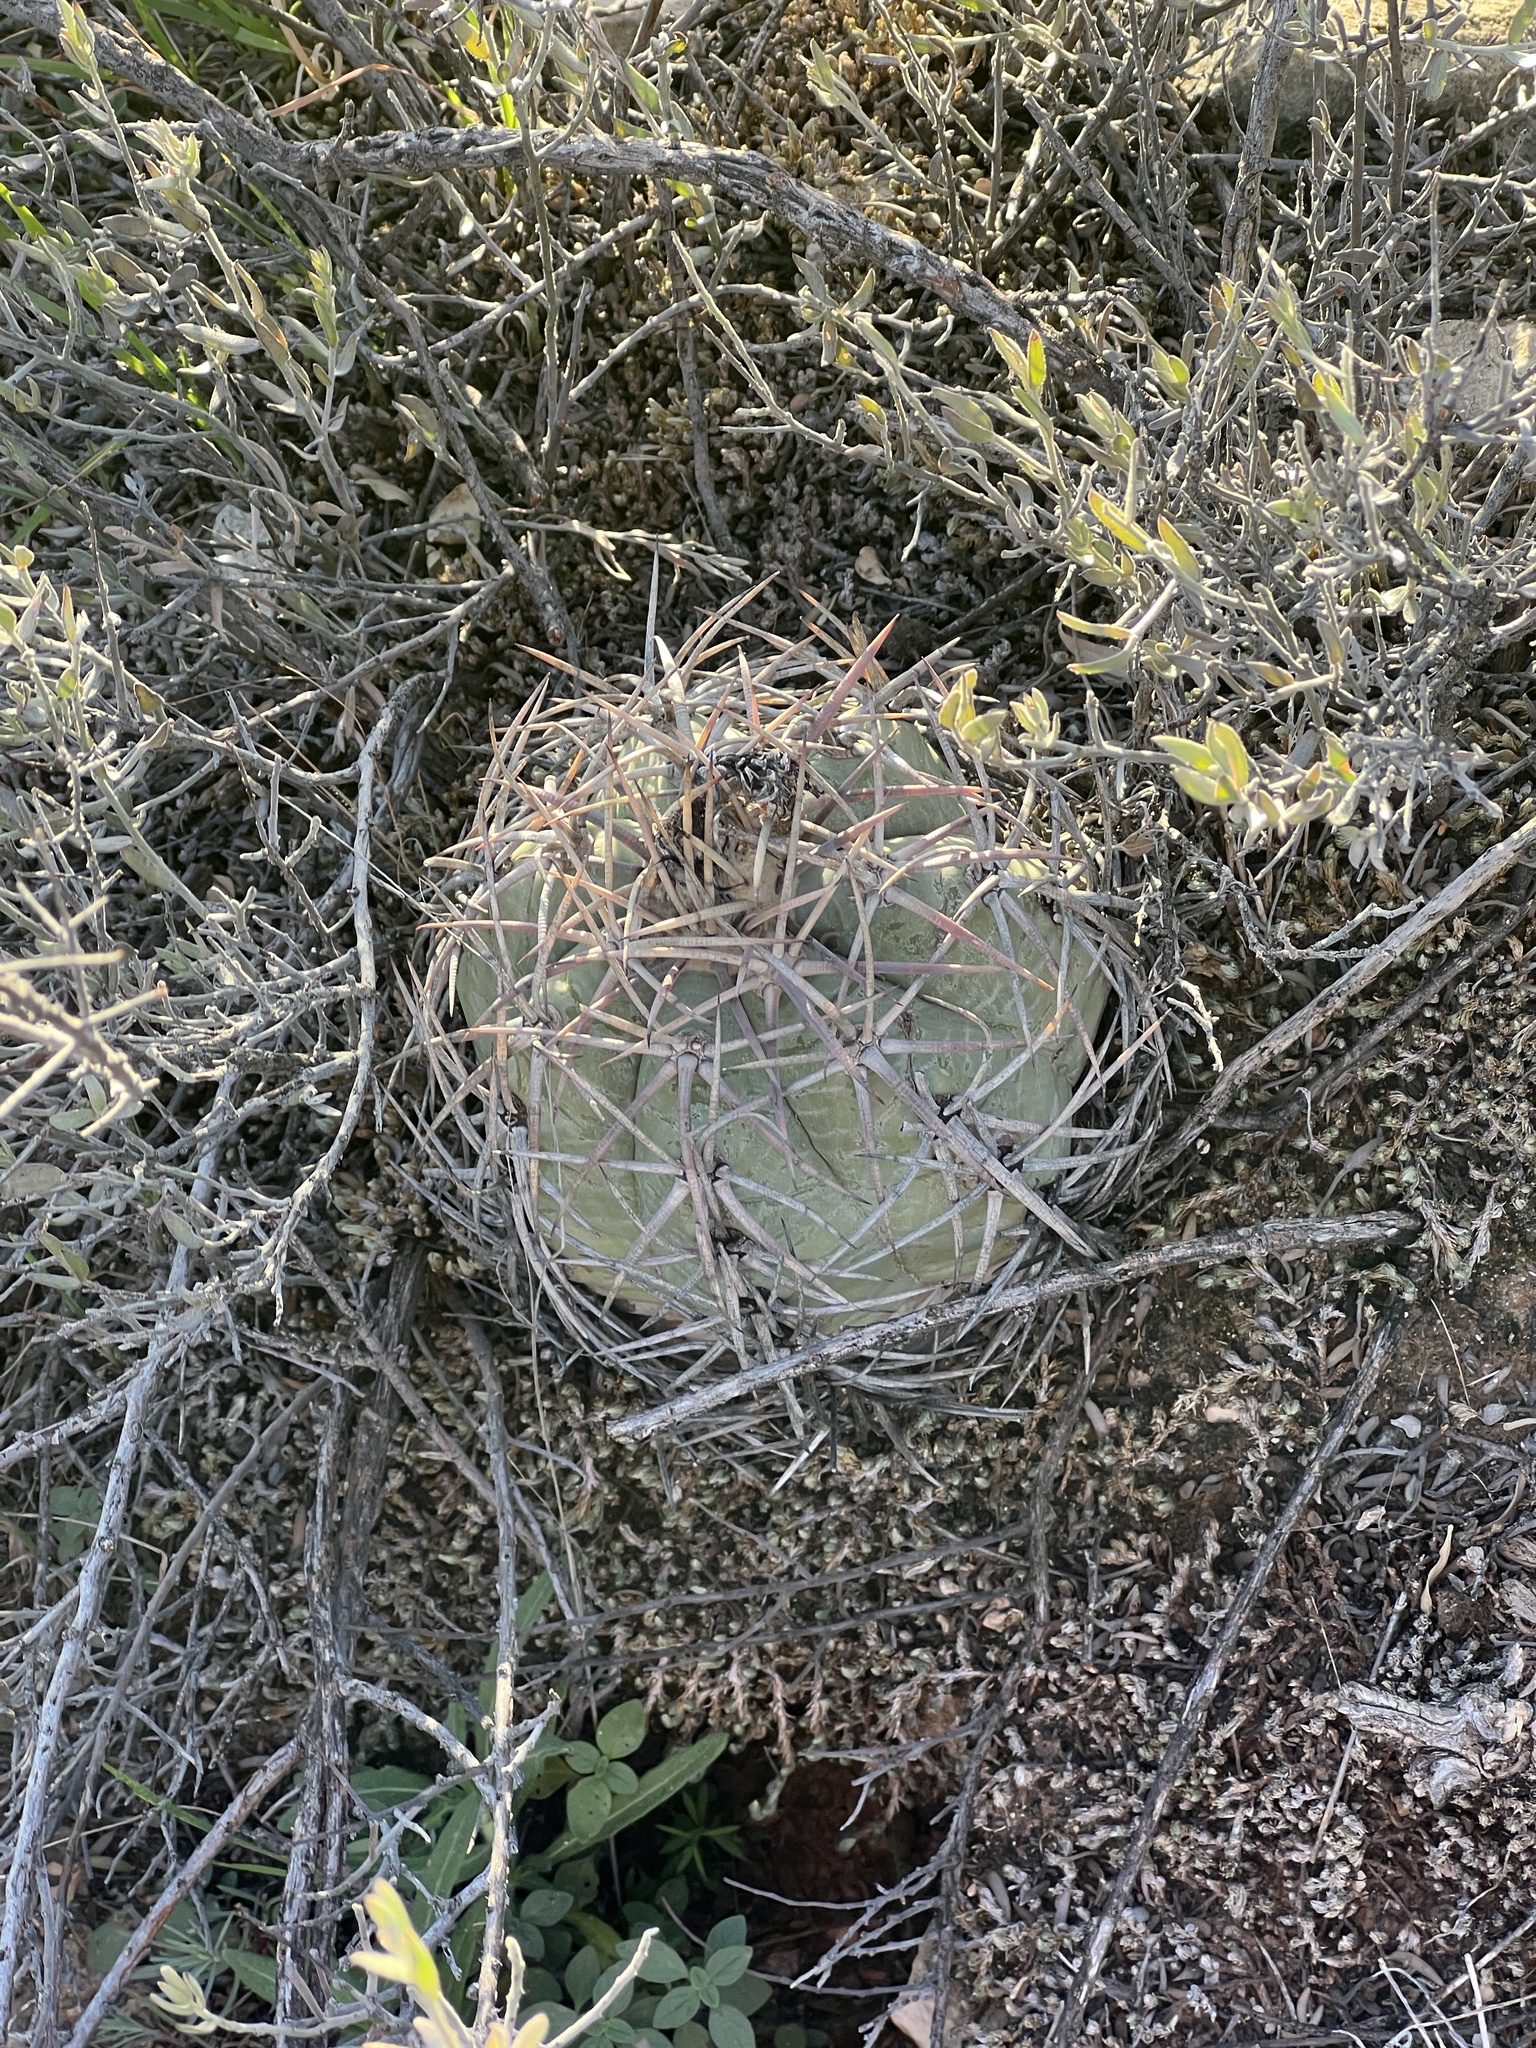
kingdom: Plantae
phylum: Tracheophyta
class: Magnoliopsida
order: Caryophyllales
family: Cactaceae
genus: Echinocactus
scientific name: Echinocactus horizonthalonius
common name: Devilshead
